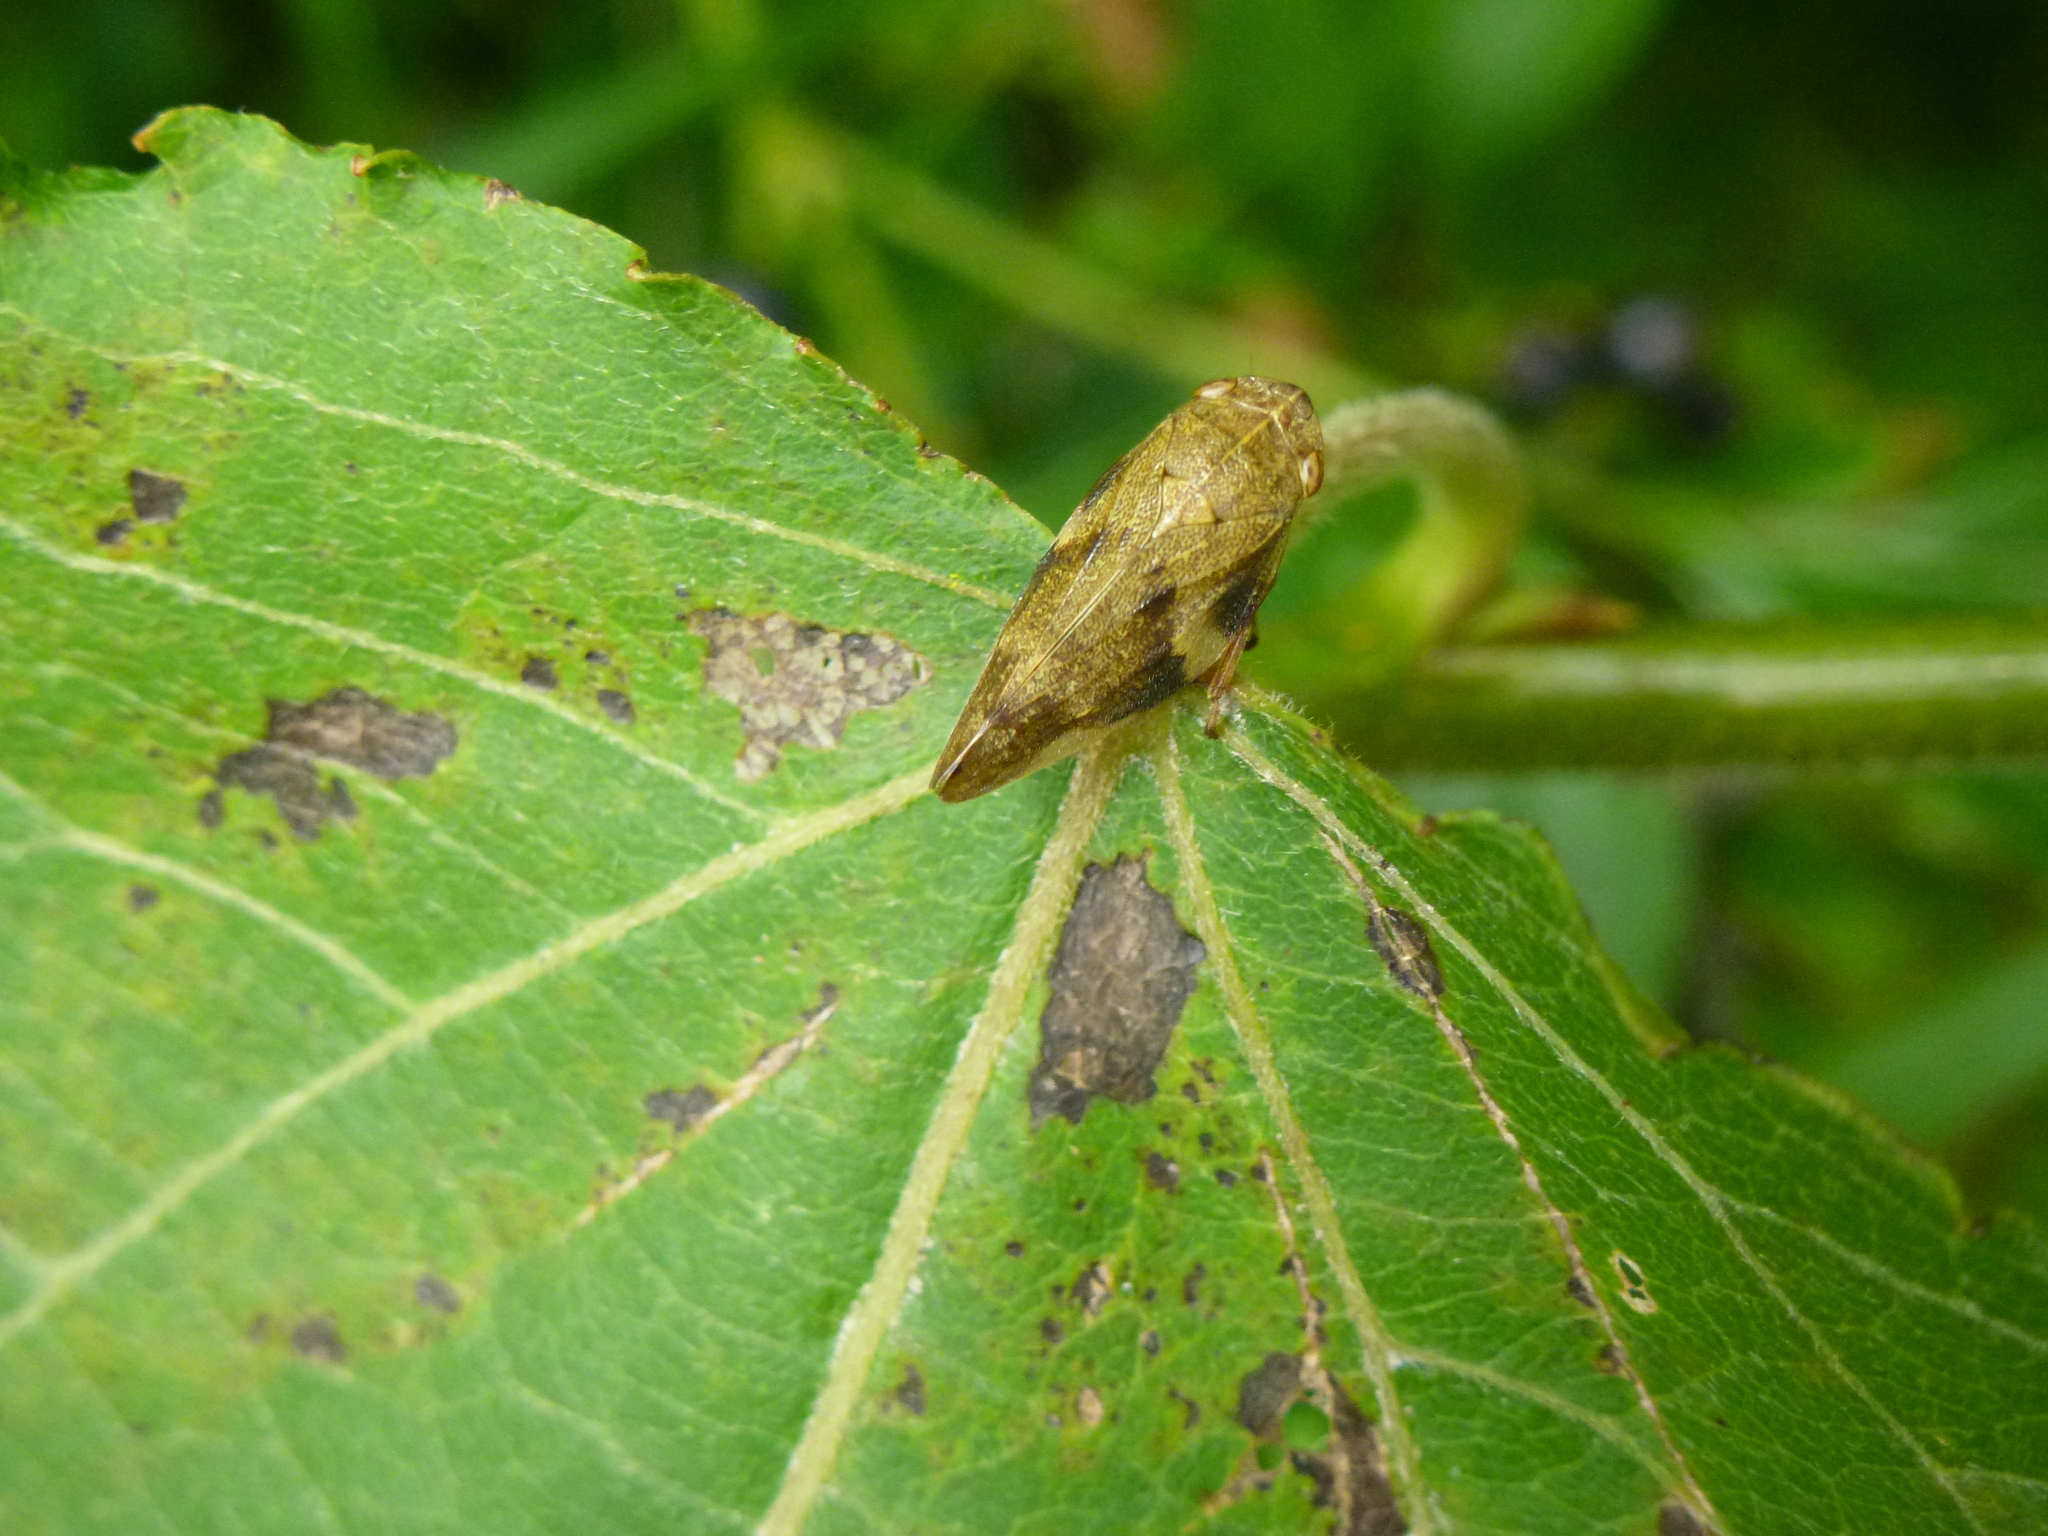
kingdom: Animalia
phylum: Arthropoda
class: Insecta
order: Hemiptera
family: Aphrophoridae
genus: Aphrophora
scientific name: Aphrophora alni
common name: European alder spittlebug
